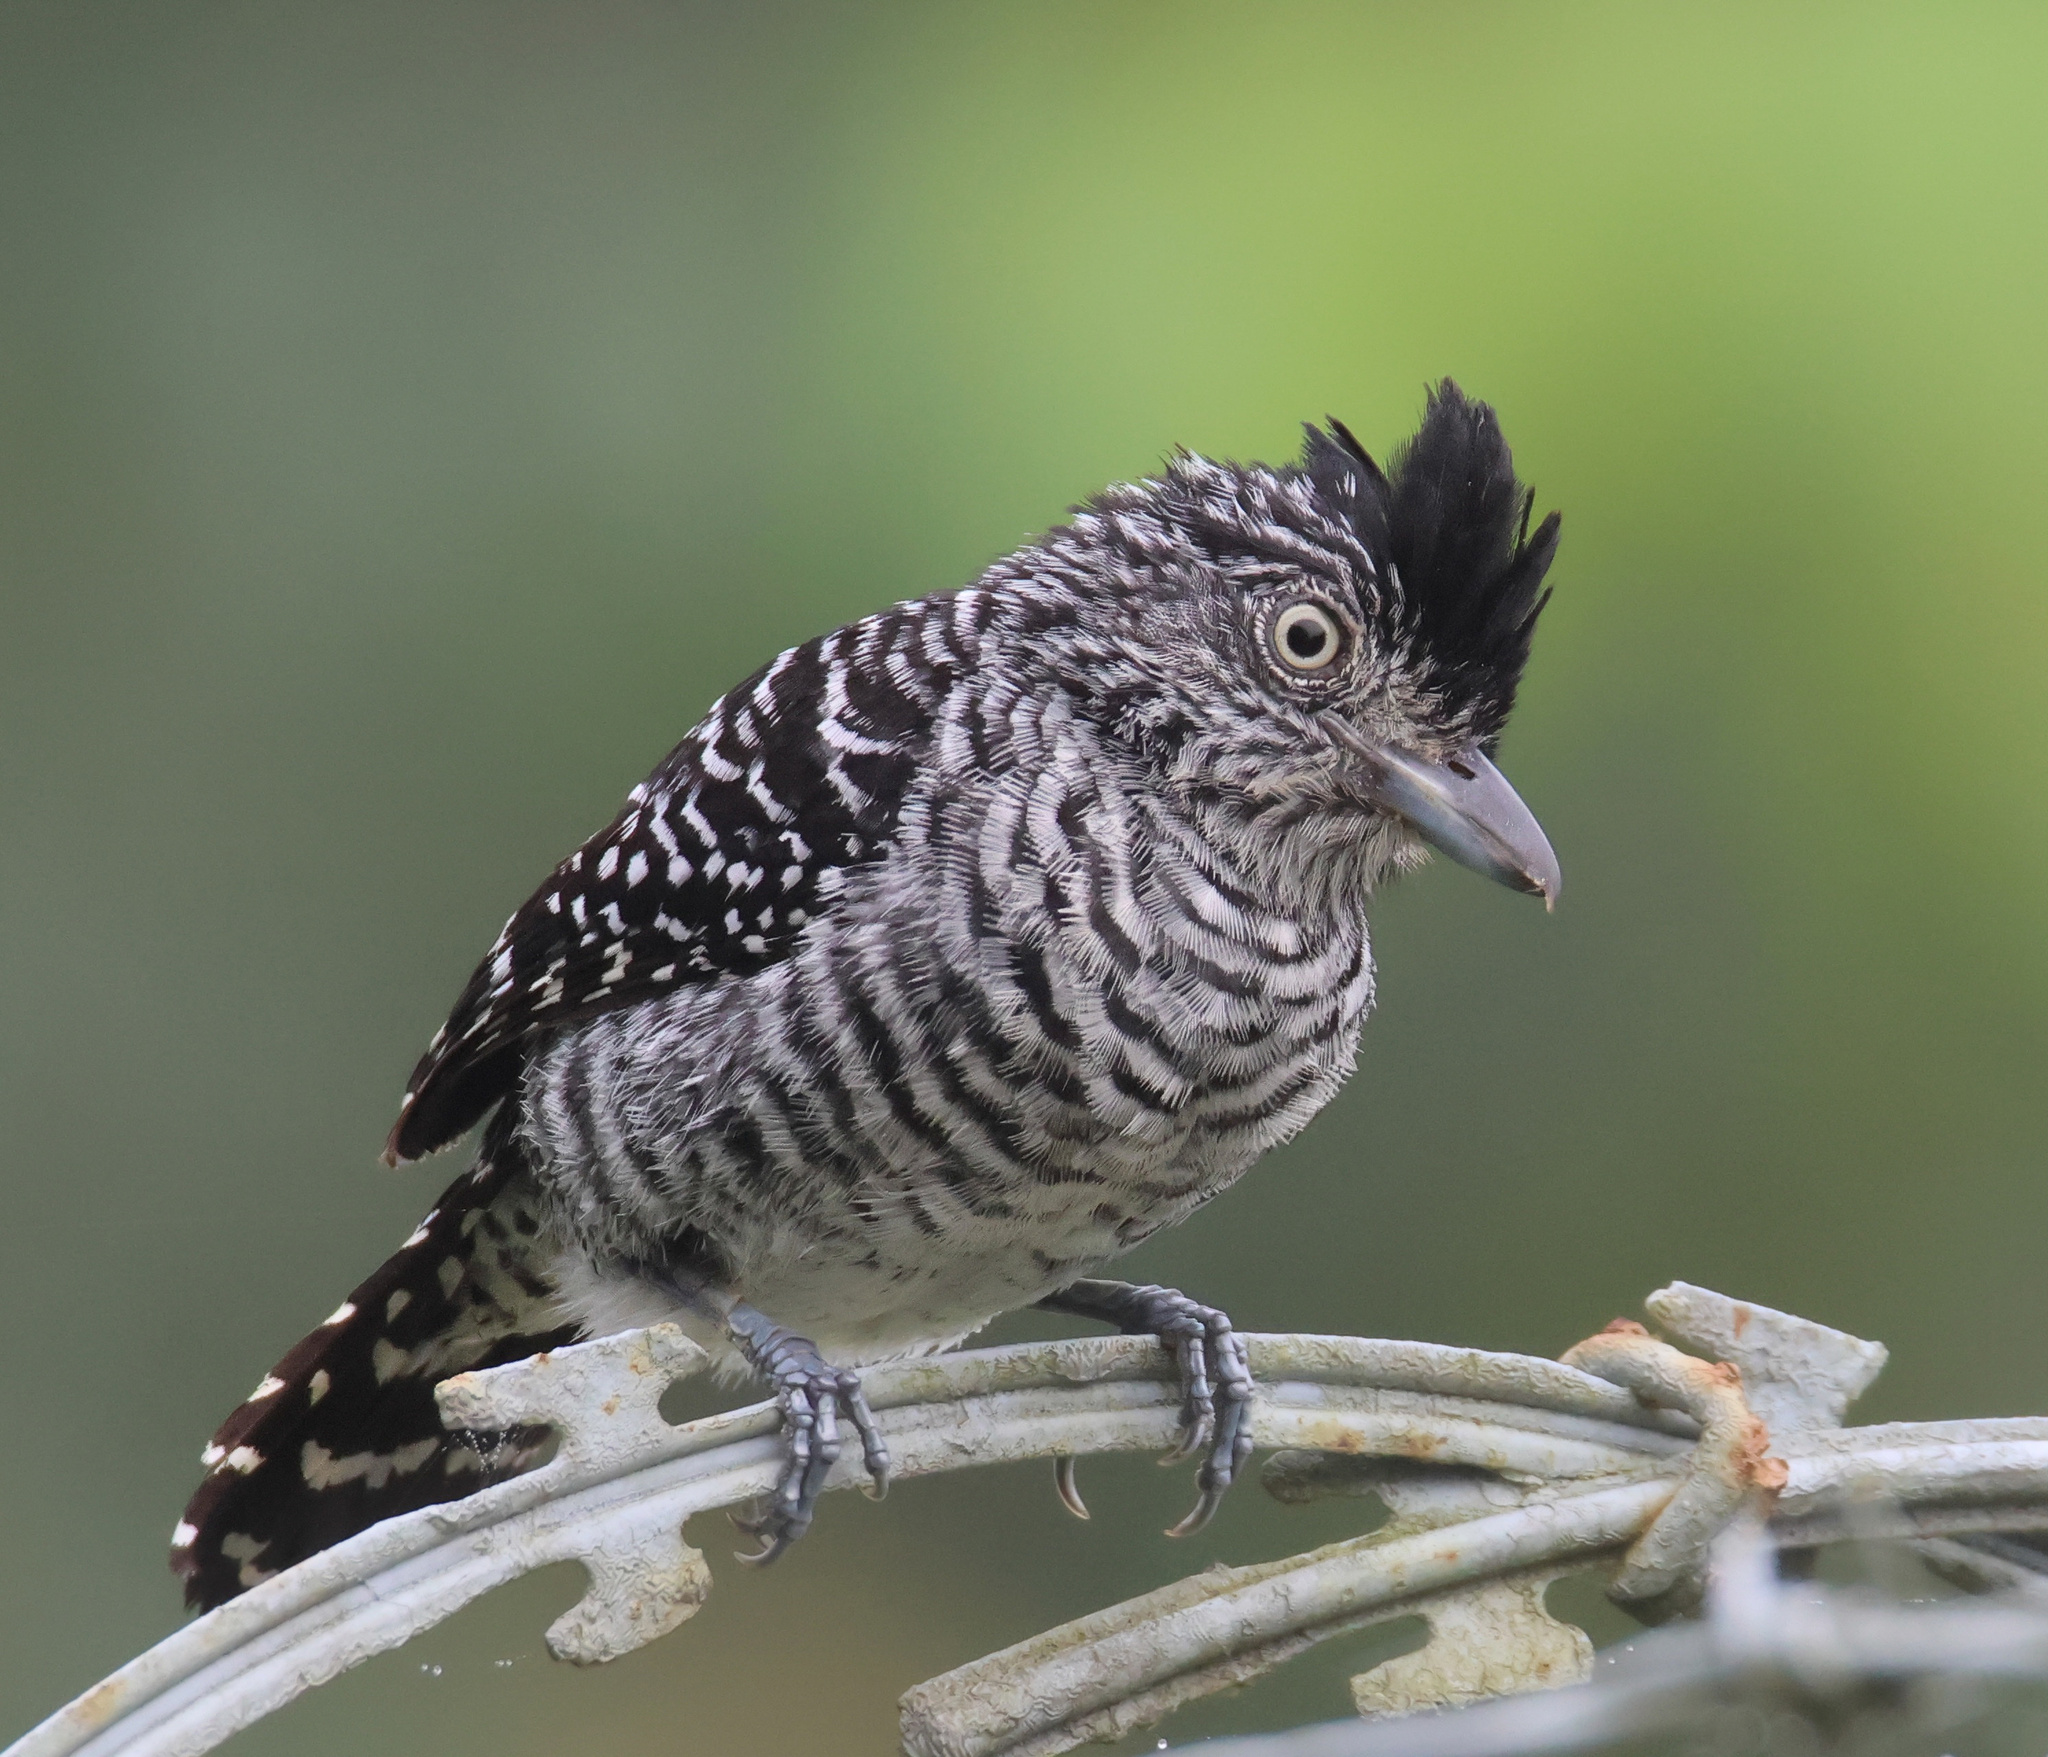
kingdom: Animalia
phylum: Chordata
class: Aves
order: Passeriformes
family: Thamnophilidae
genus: Thamnophilus
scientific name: Thamnophilus doliatus
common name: Barred antshrike
